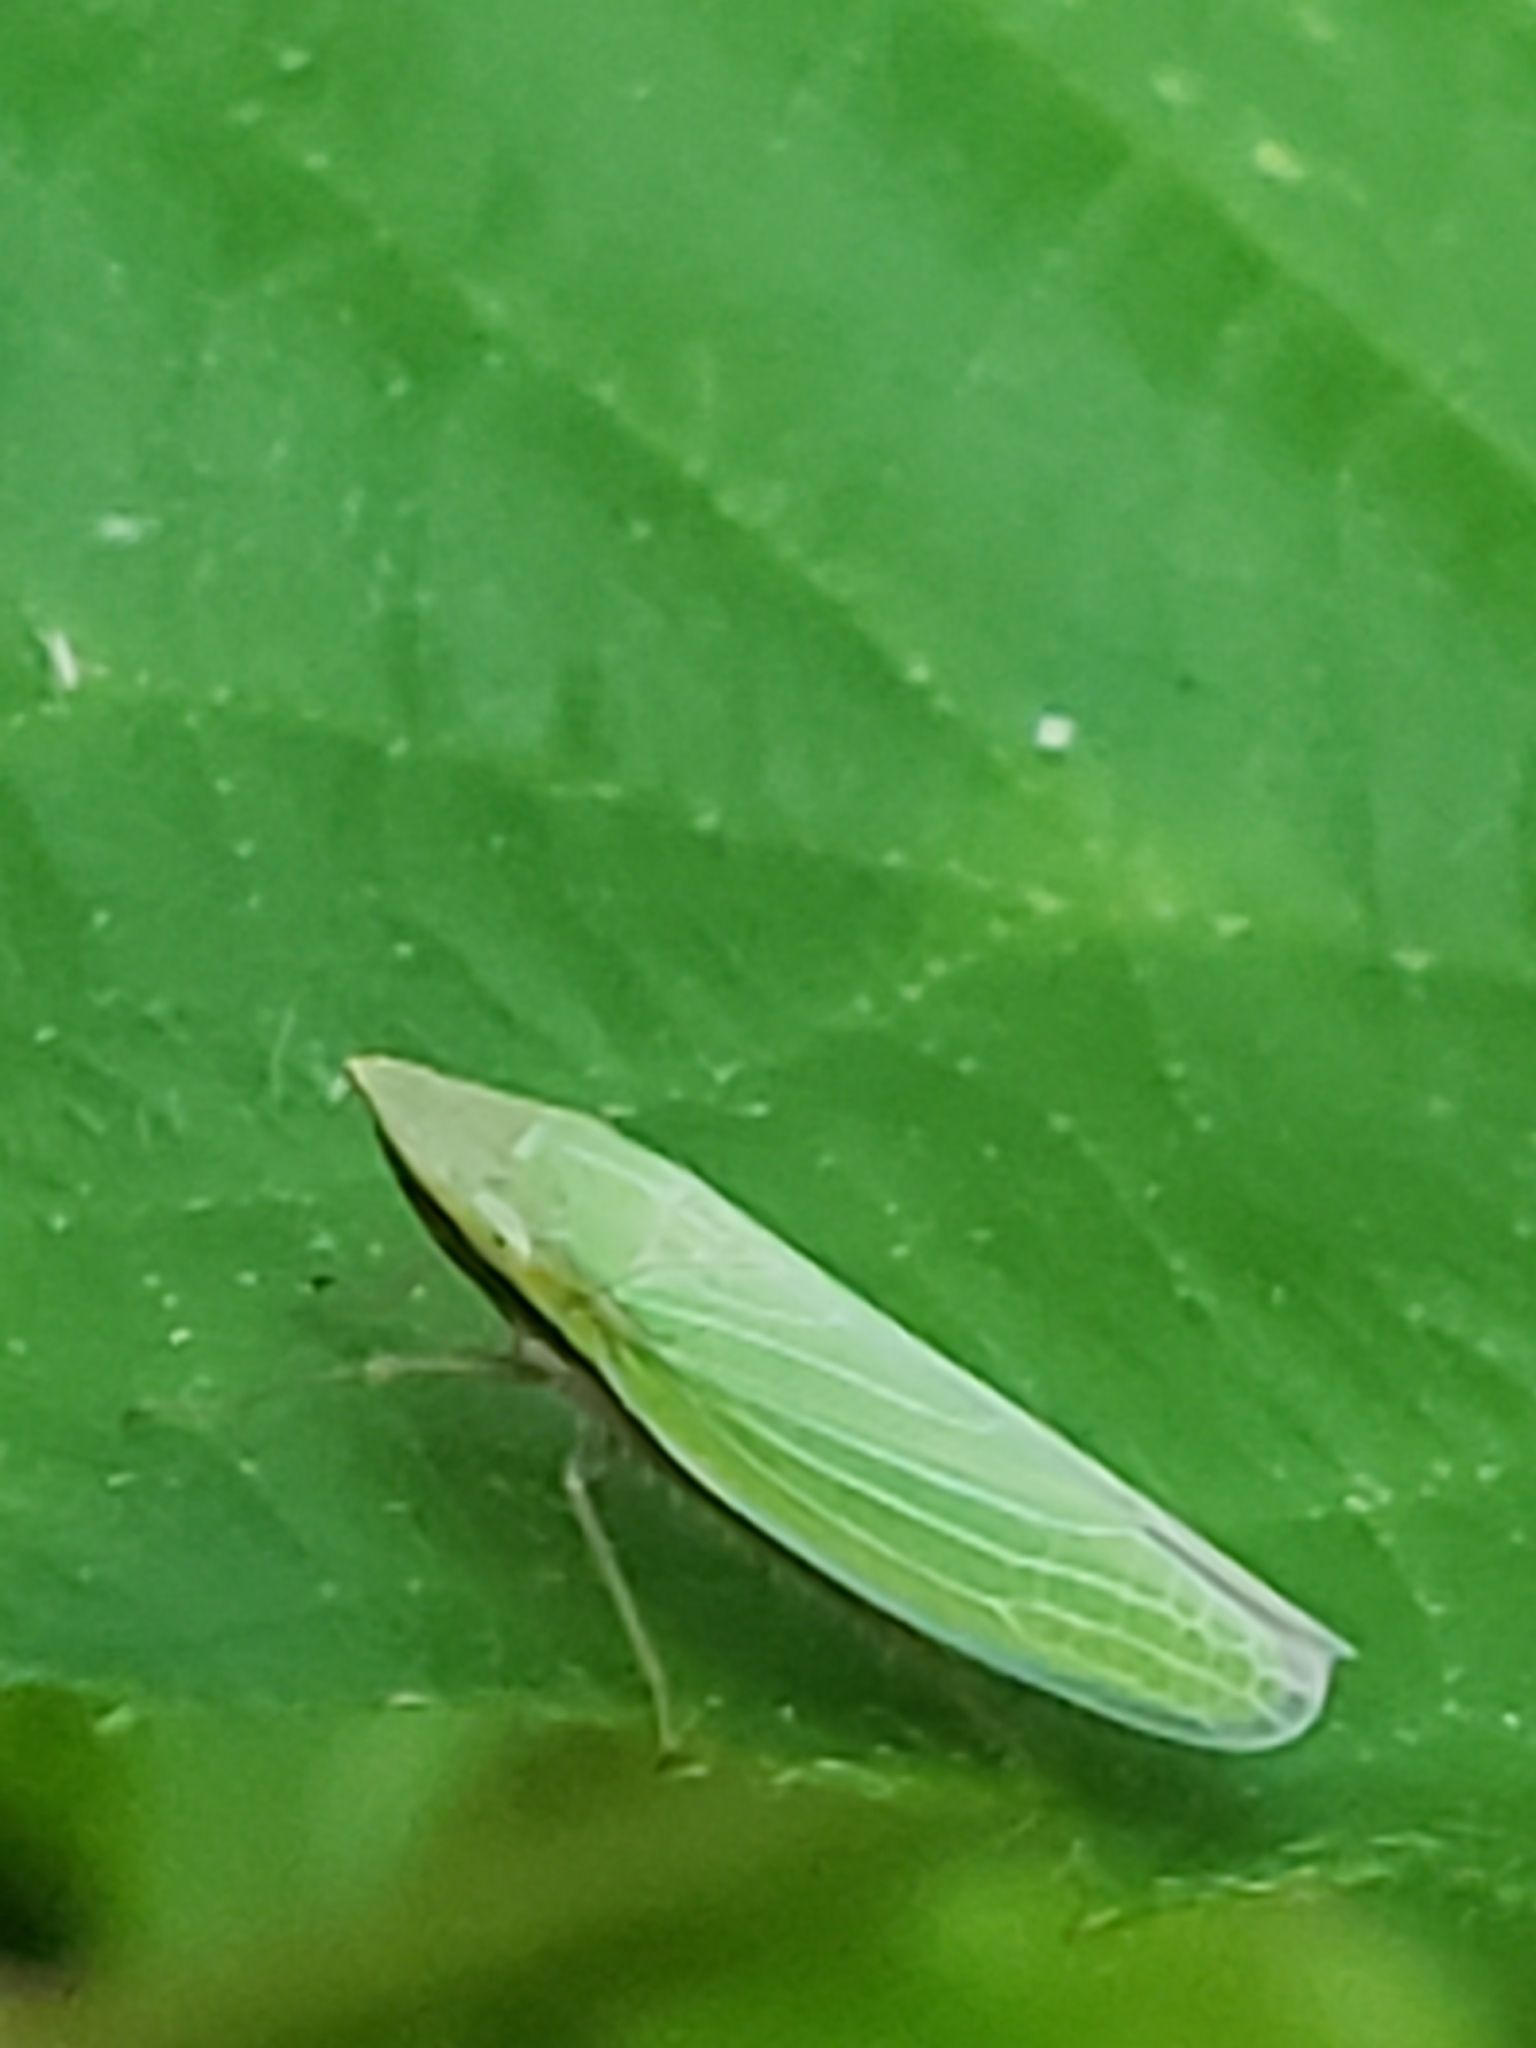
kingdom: Animalia
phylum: Arthropoda
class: Insecta
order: Hemiptera
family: Cicadellidae
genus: Draeculacephala
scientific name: Draeculacephala antica
